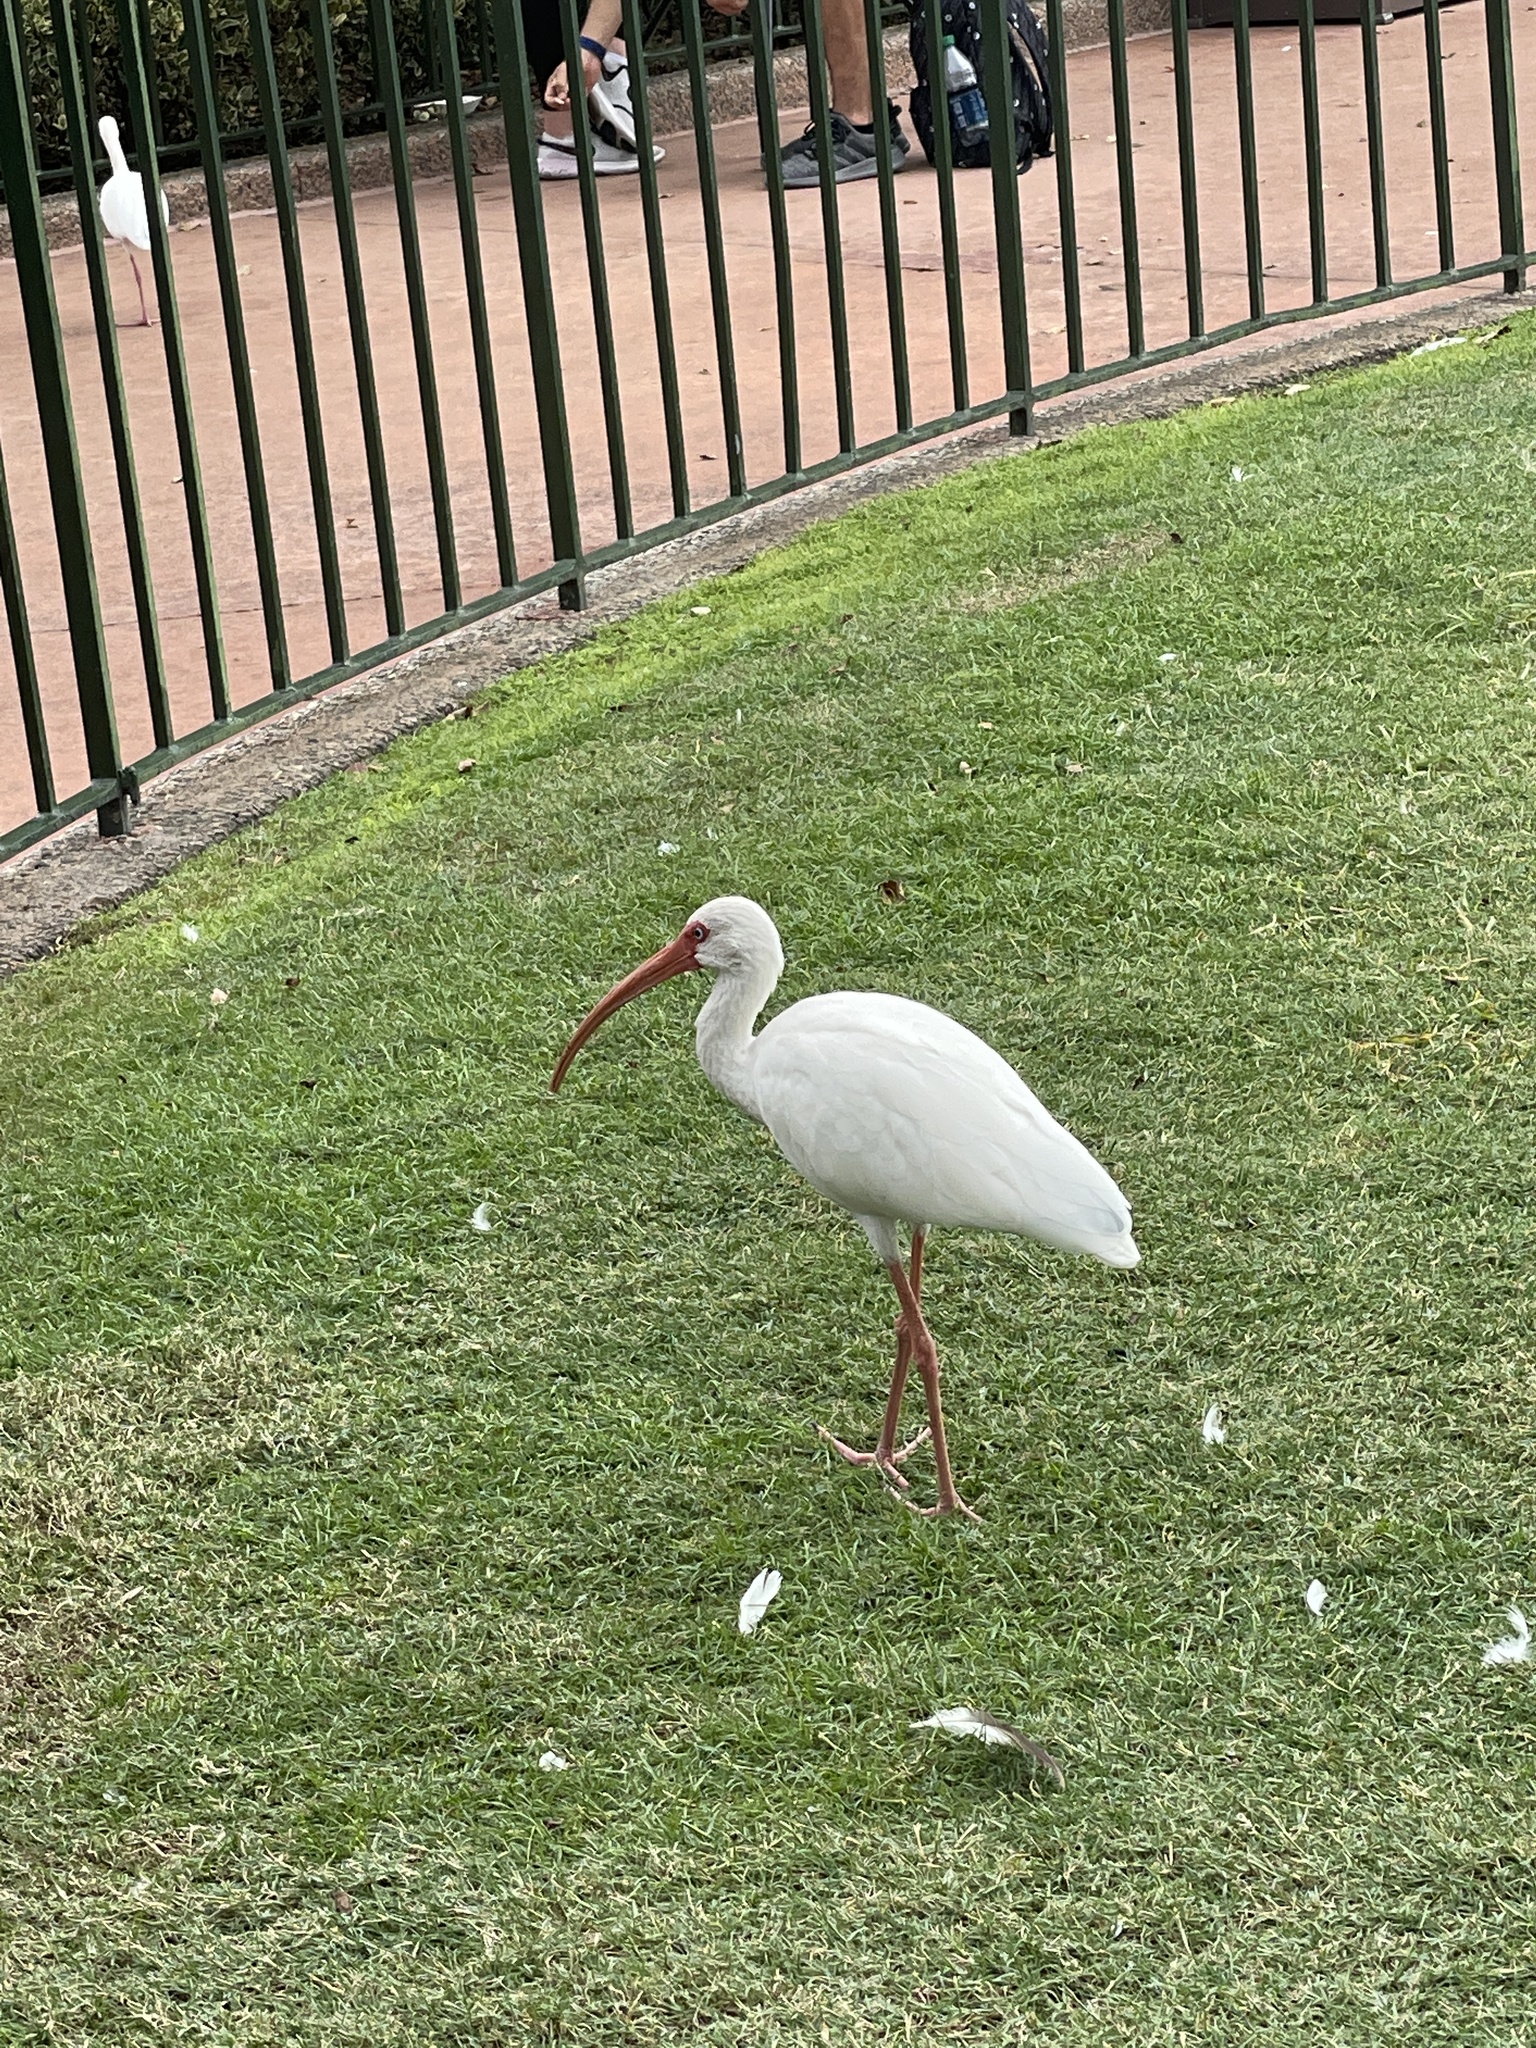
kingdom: Animalia
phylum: Chordata
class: Aves
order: Pelecaniformes
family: Threskiornithidae
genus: Eudocimus
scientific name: Eudocimus albus
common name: White ibis
